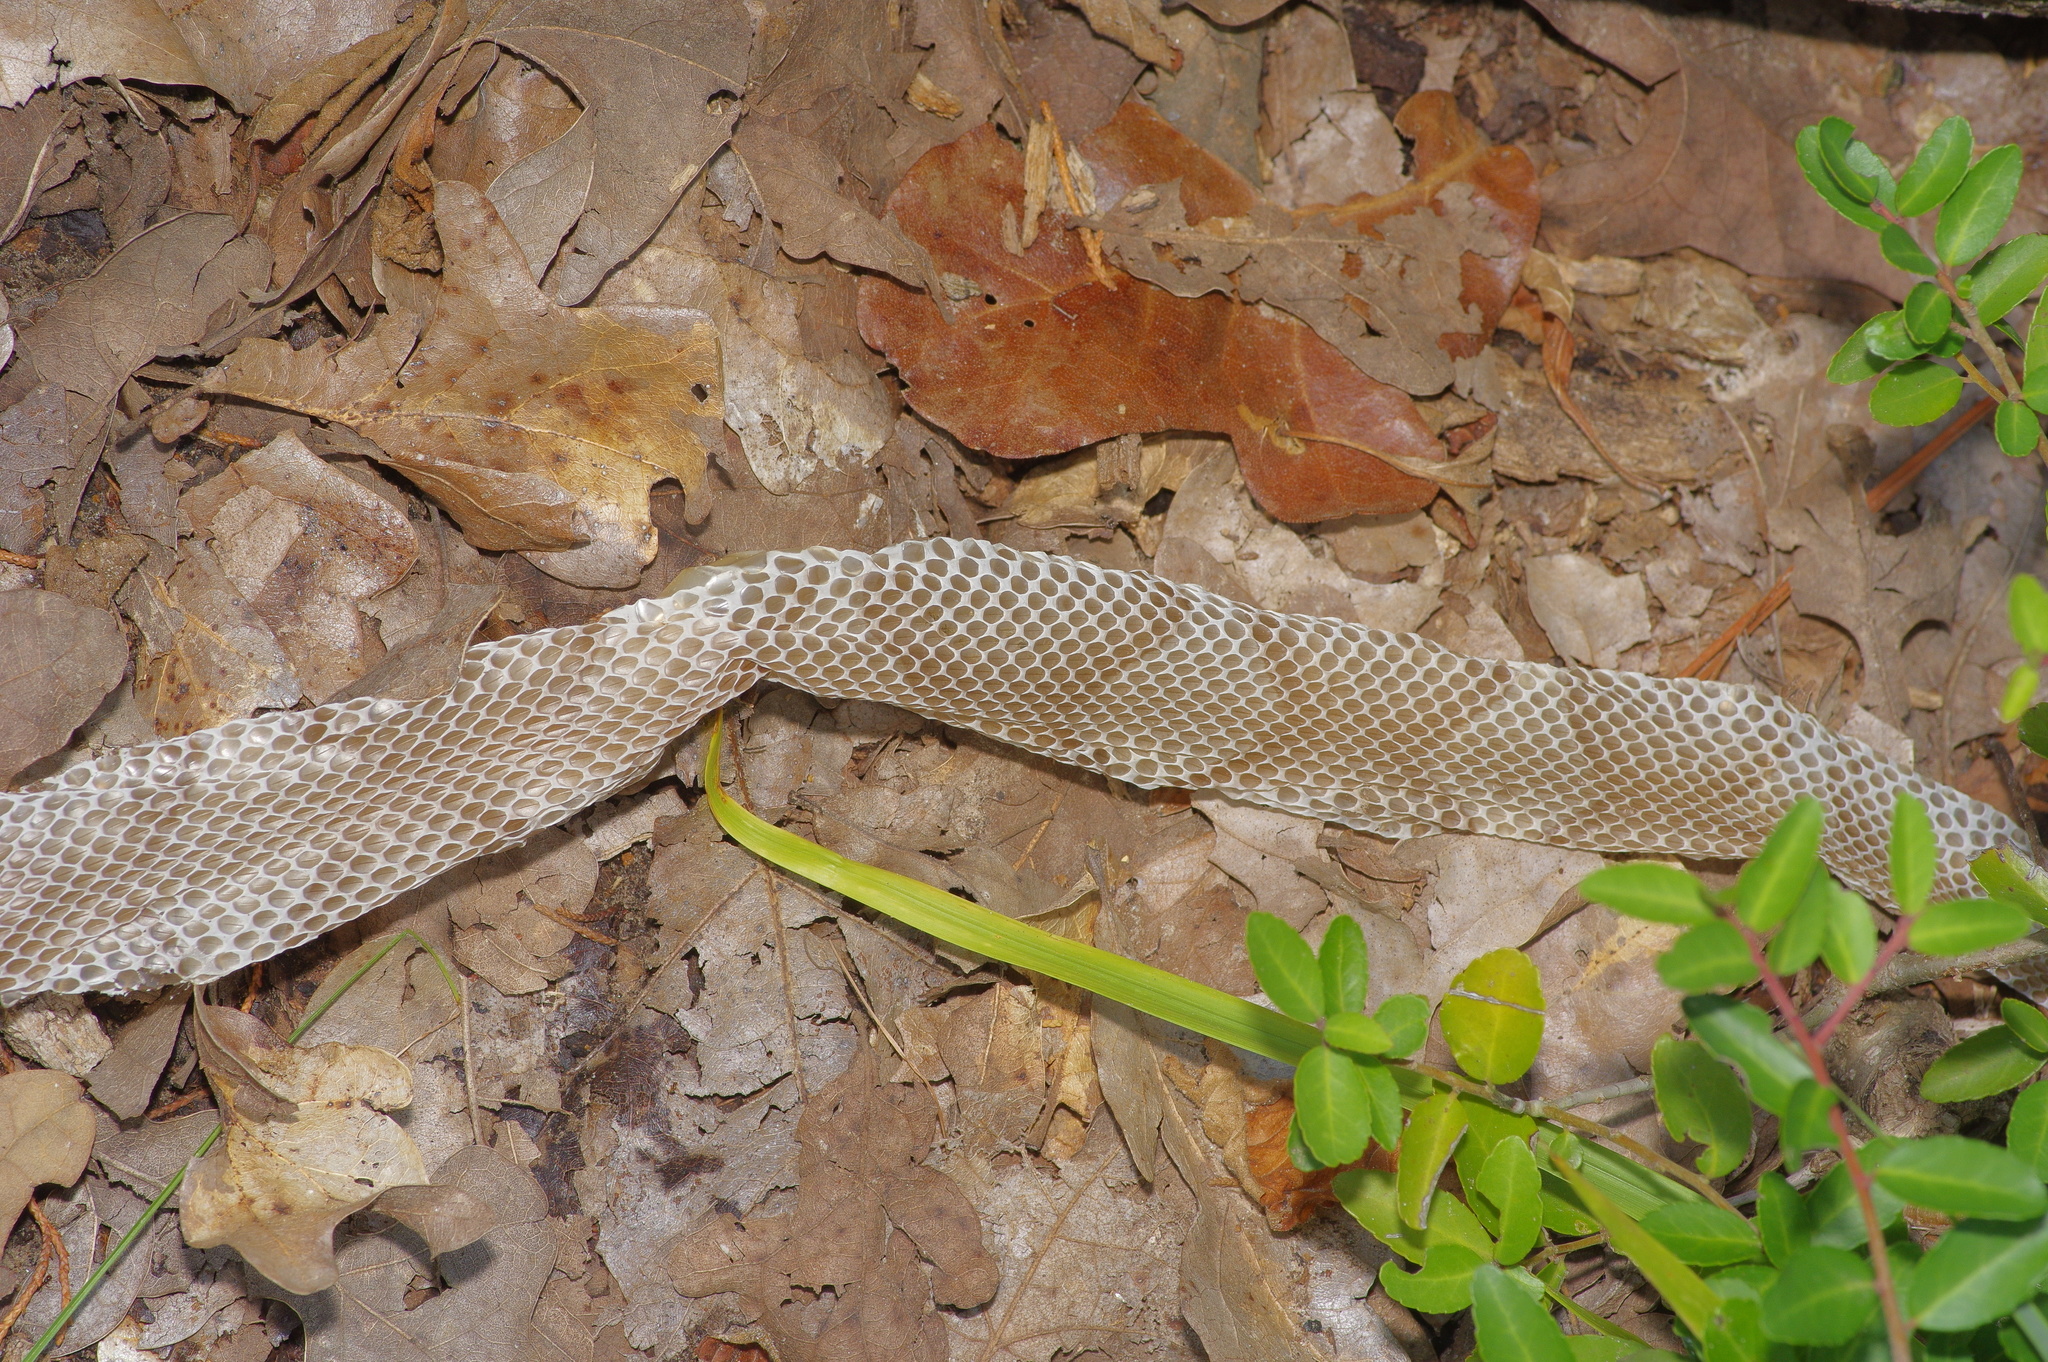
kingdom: Animalia
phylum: Chordata
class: Squamata
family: Viperidae
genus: Agkistrodon
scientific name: Agkistrodon laticinctus
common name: Broad-banded copperhead
